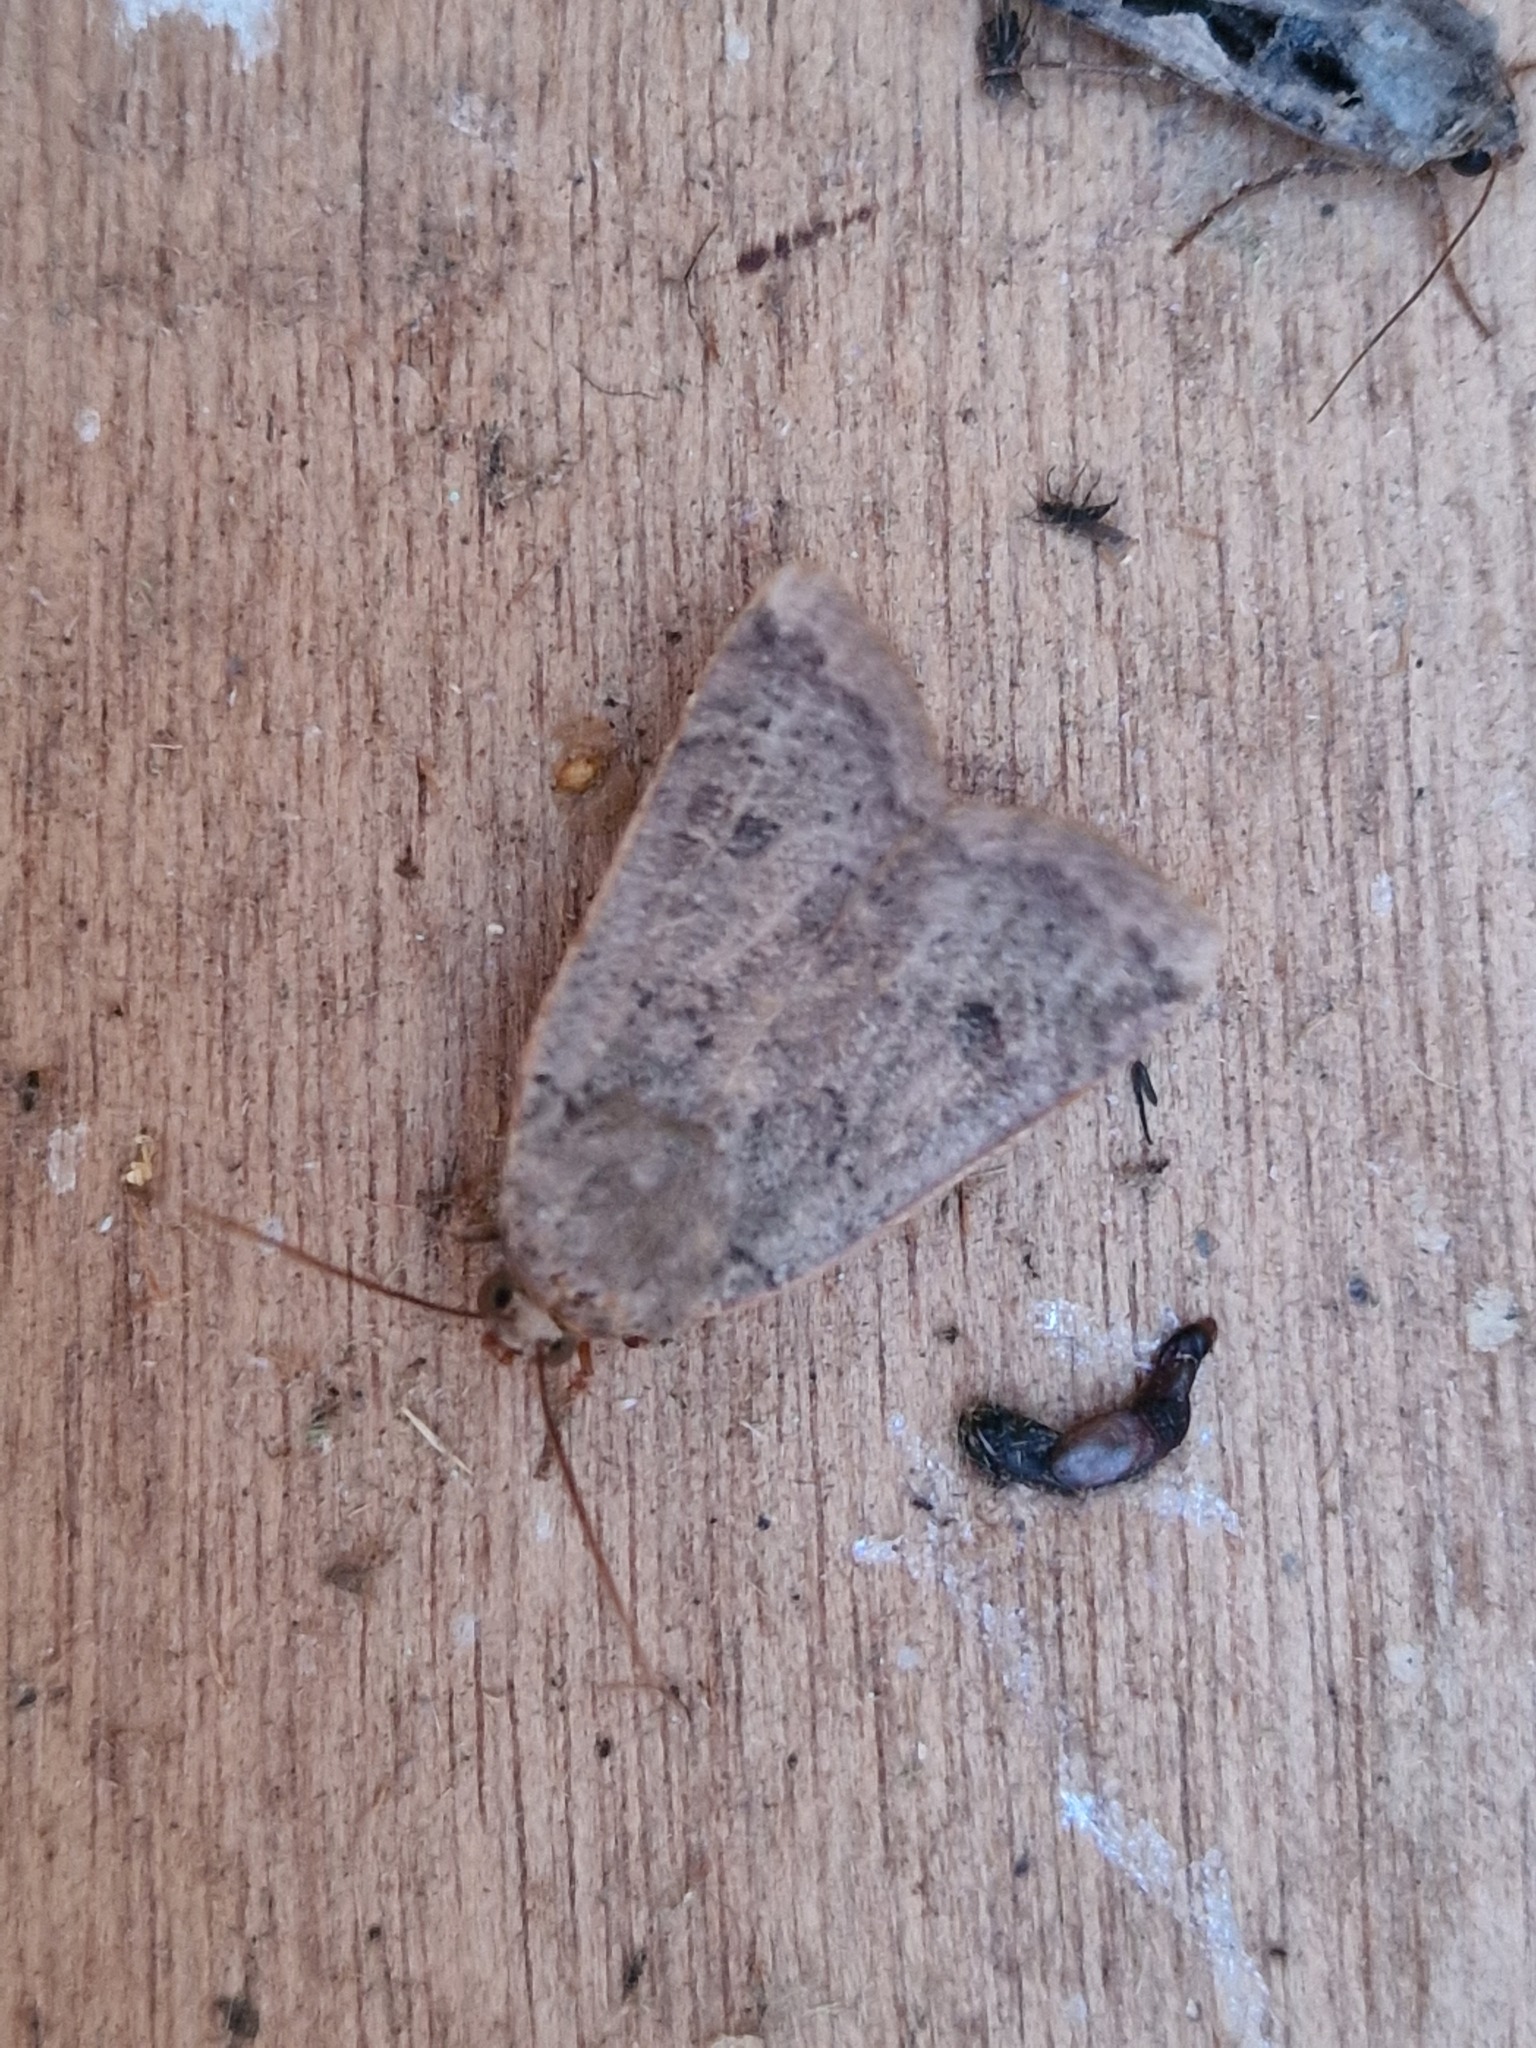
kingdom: Animalia
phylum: Arthropoda
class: Insecta
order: Lepidoptera
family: Noctuidae
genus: Noctua
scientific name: Noctua comes
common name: Lesser yellow underwing
